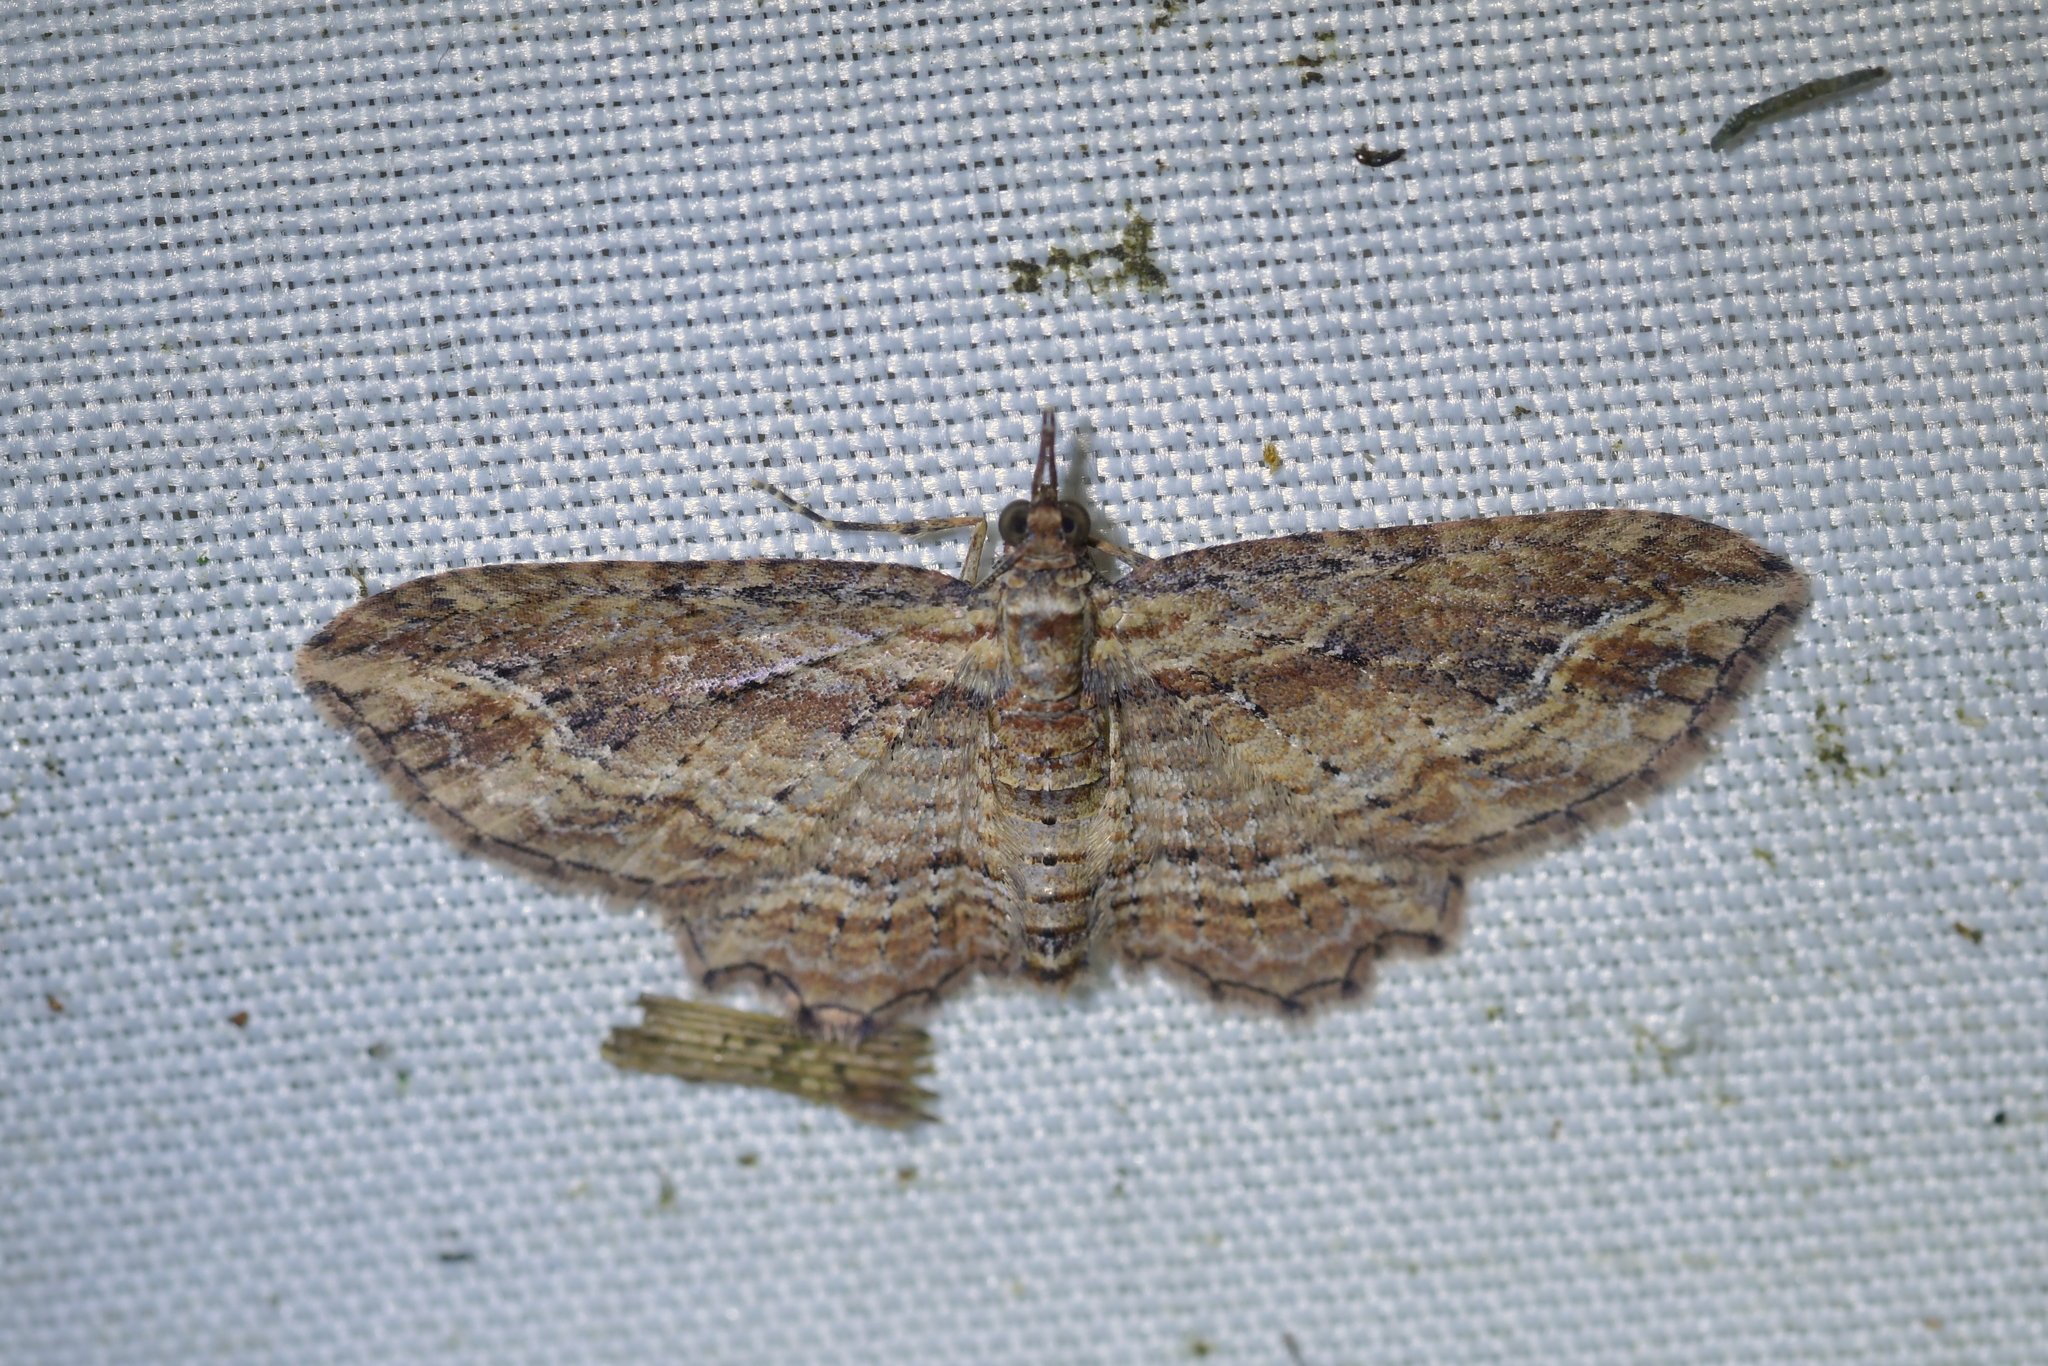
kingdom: Animalia
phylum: Arthropoda
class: Insecta
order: Lepidoptera
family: Geometridae
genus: Chloroclystis
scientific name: Chloroclystis filata
